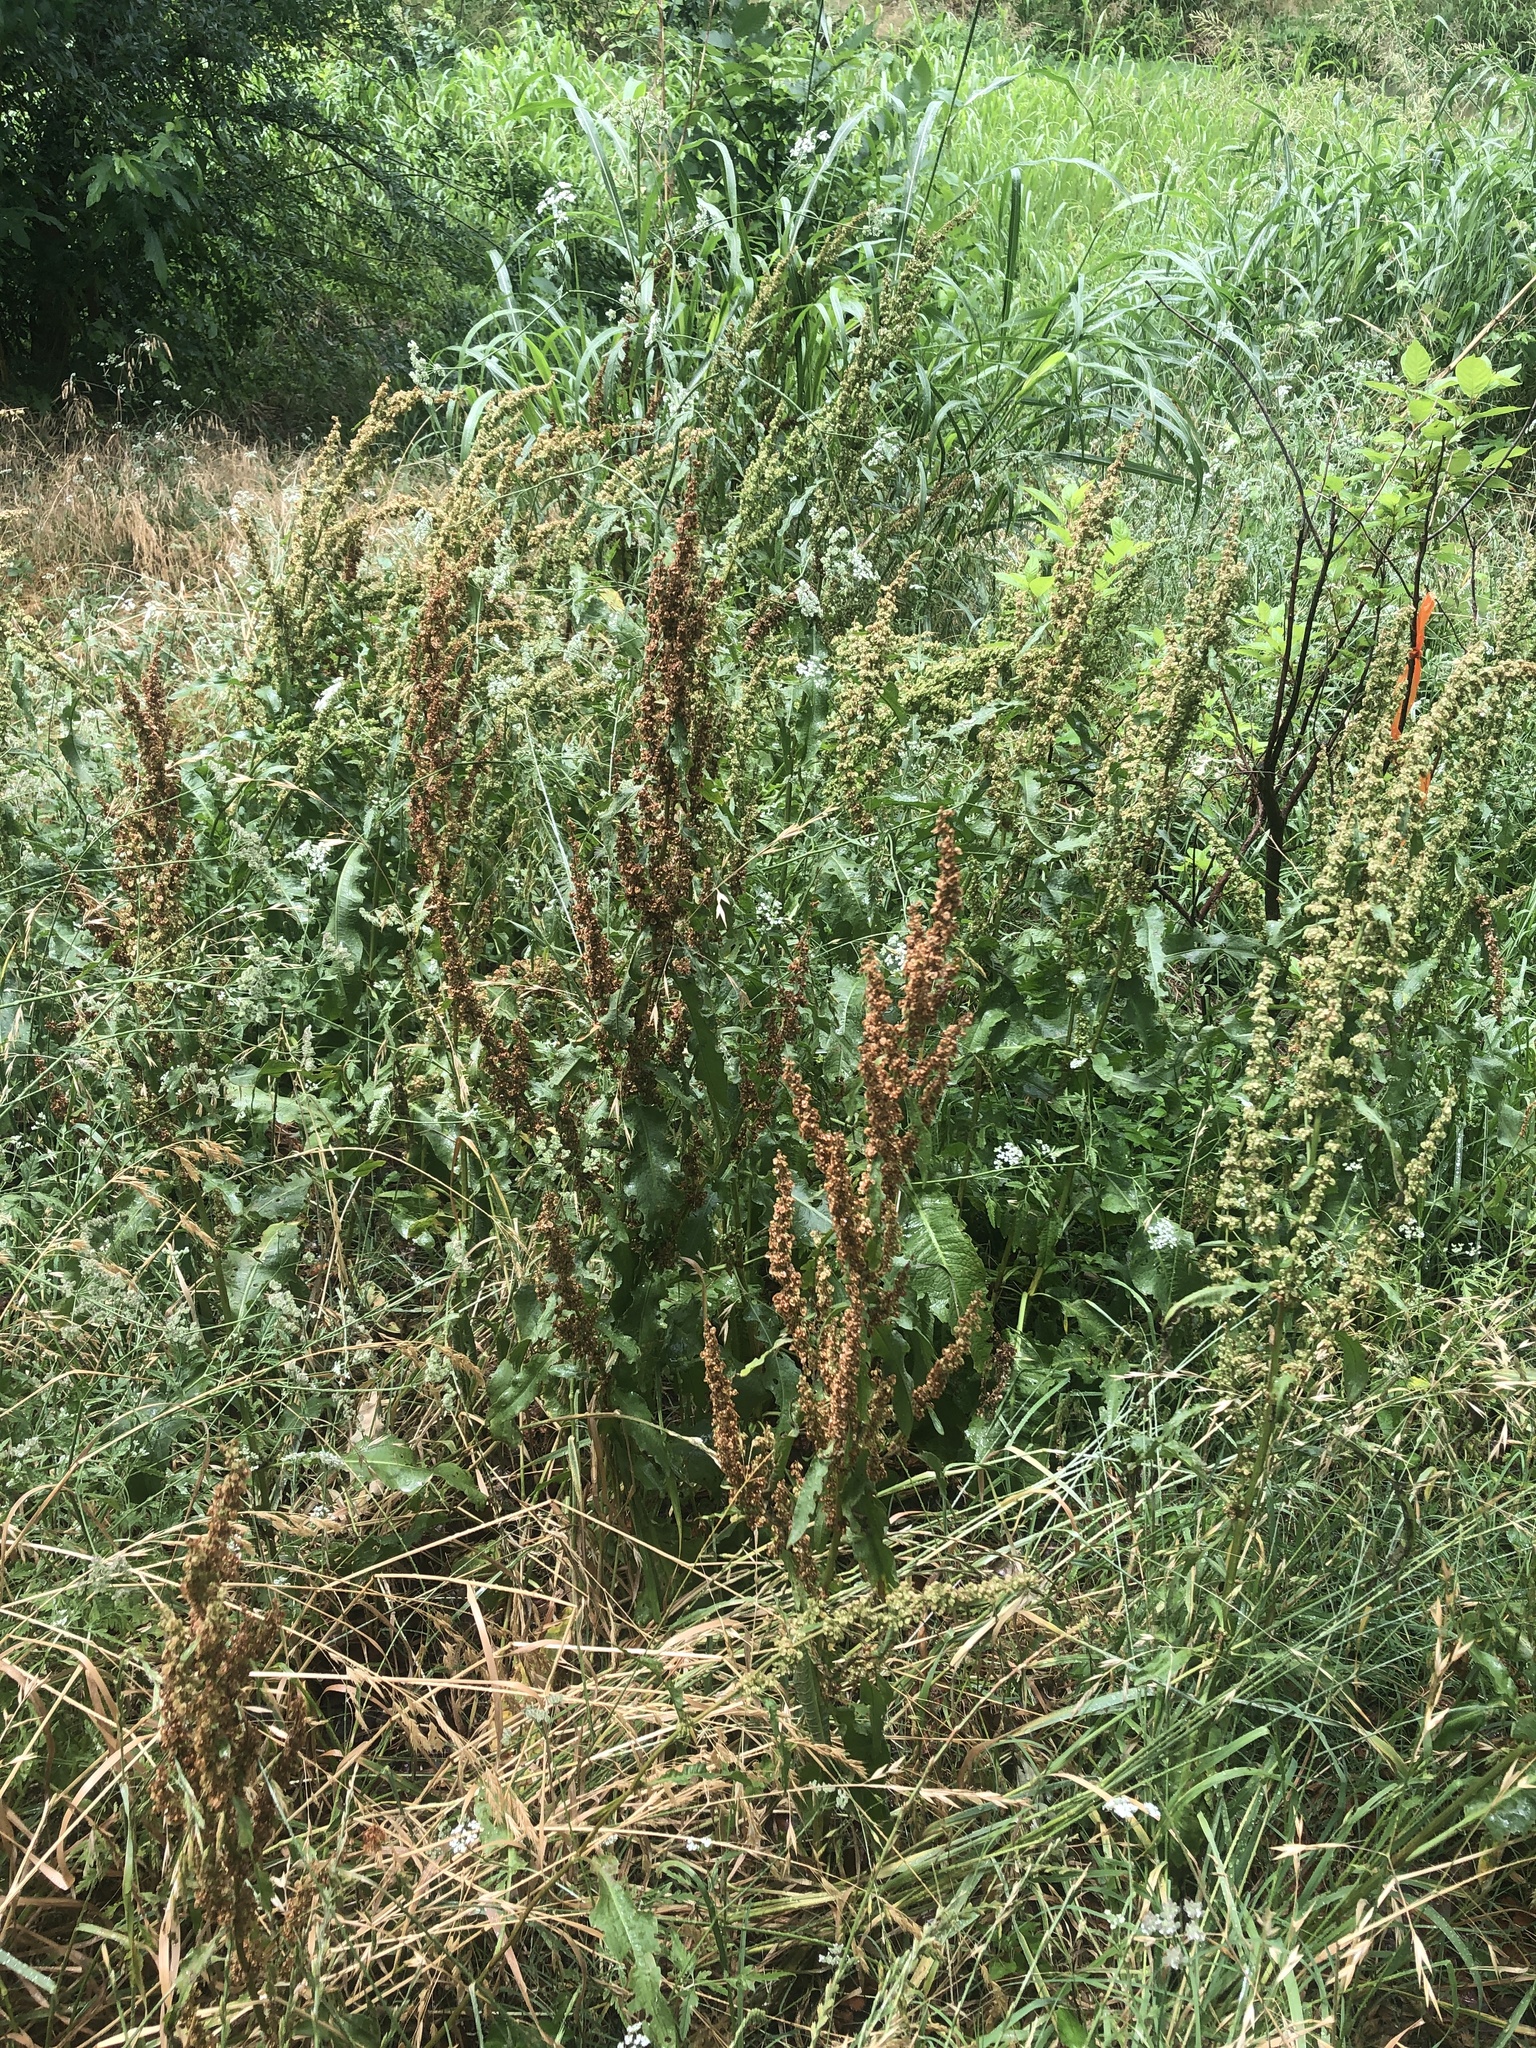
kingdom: Plantae
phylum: Tracheophyta
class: Magnoliopsida
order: Caryophyllales
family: Polygonaceae
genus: Rumex
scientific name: Rumex crispus
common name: Curled dock
